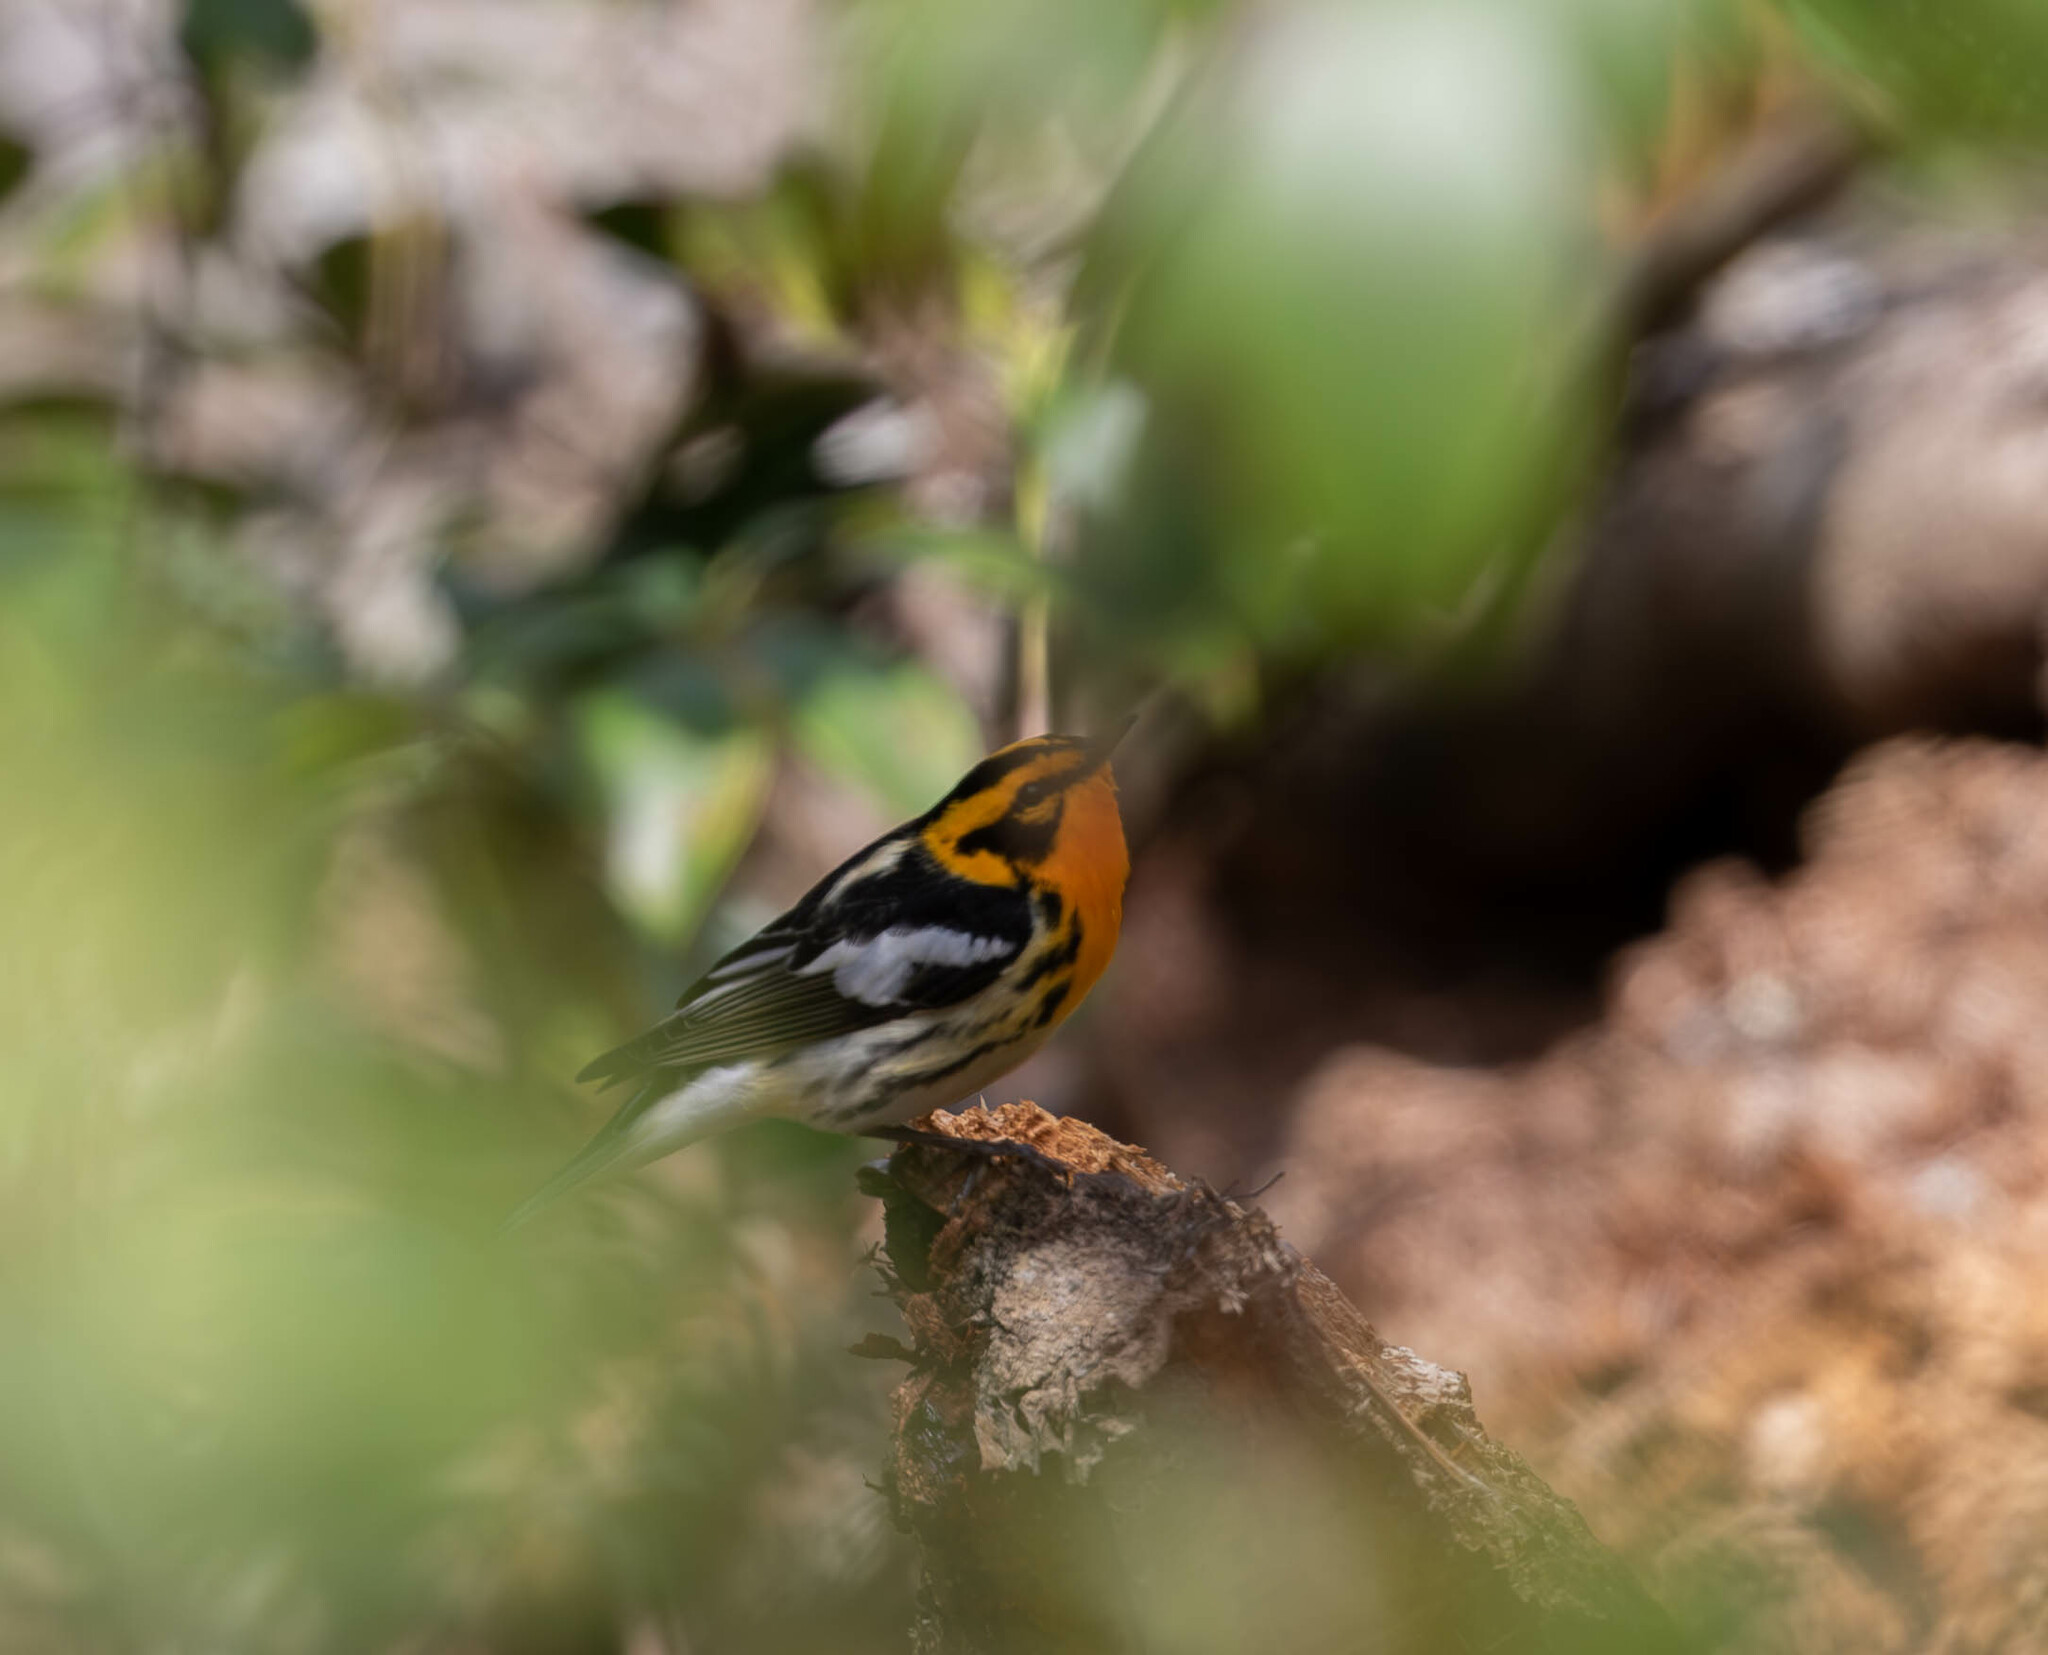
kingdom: Animalia
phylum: Chordata
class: Aves
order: Passeriformes
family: Parulidae
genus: Setophaga
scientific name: Setophaga fusca
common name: Blackburnian warbler
